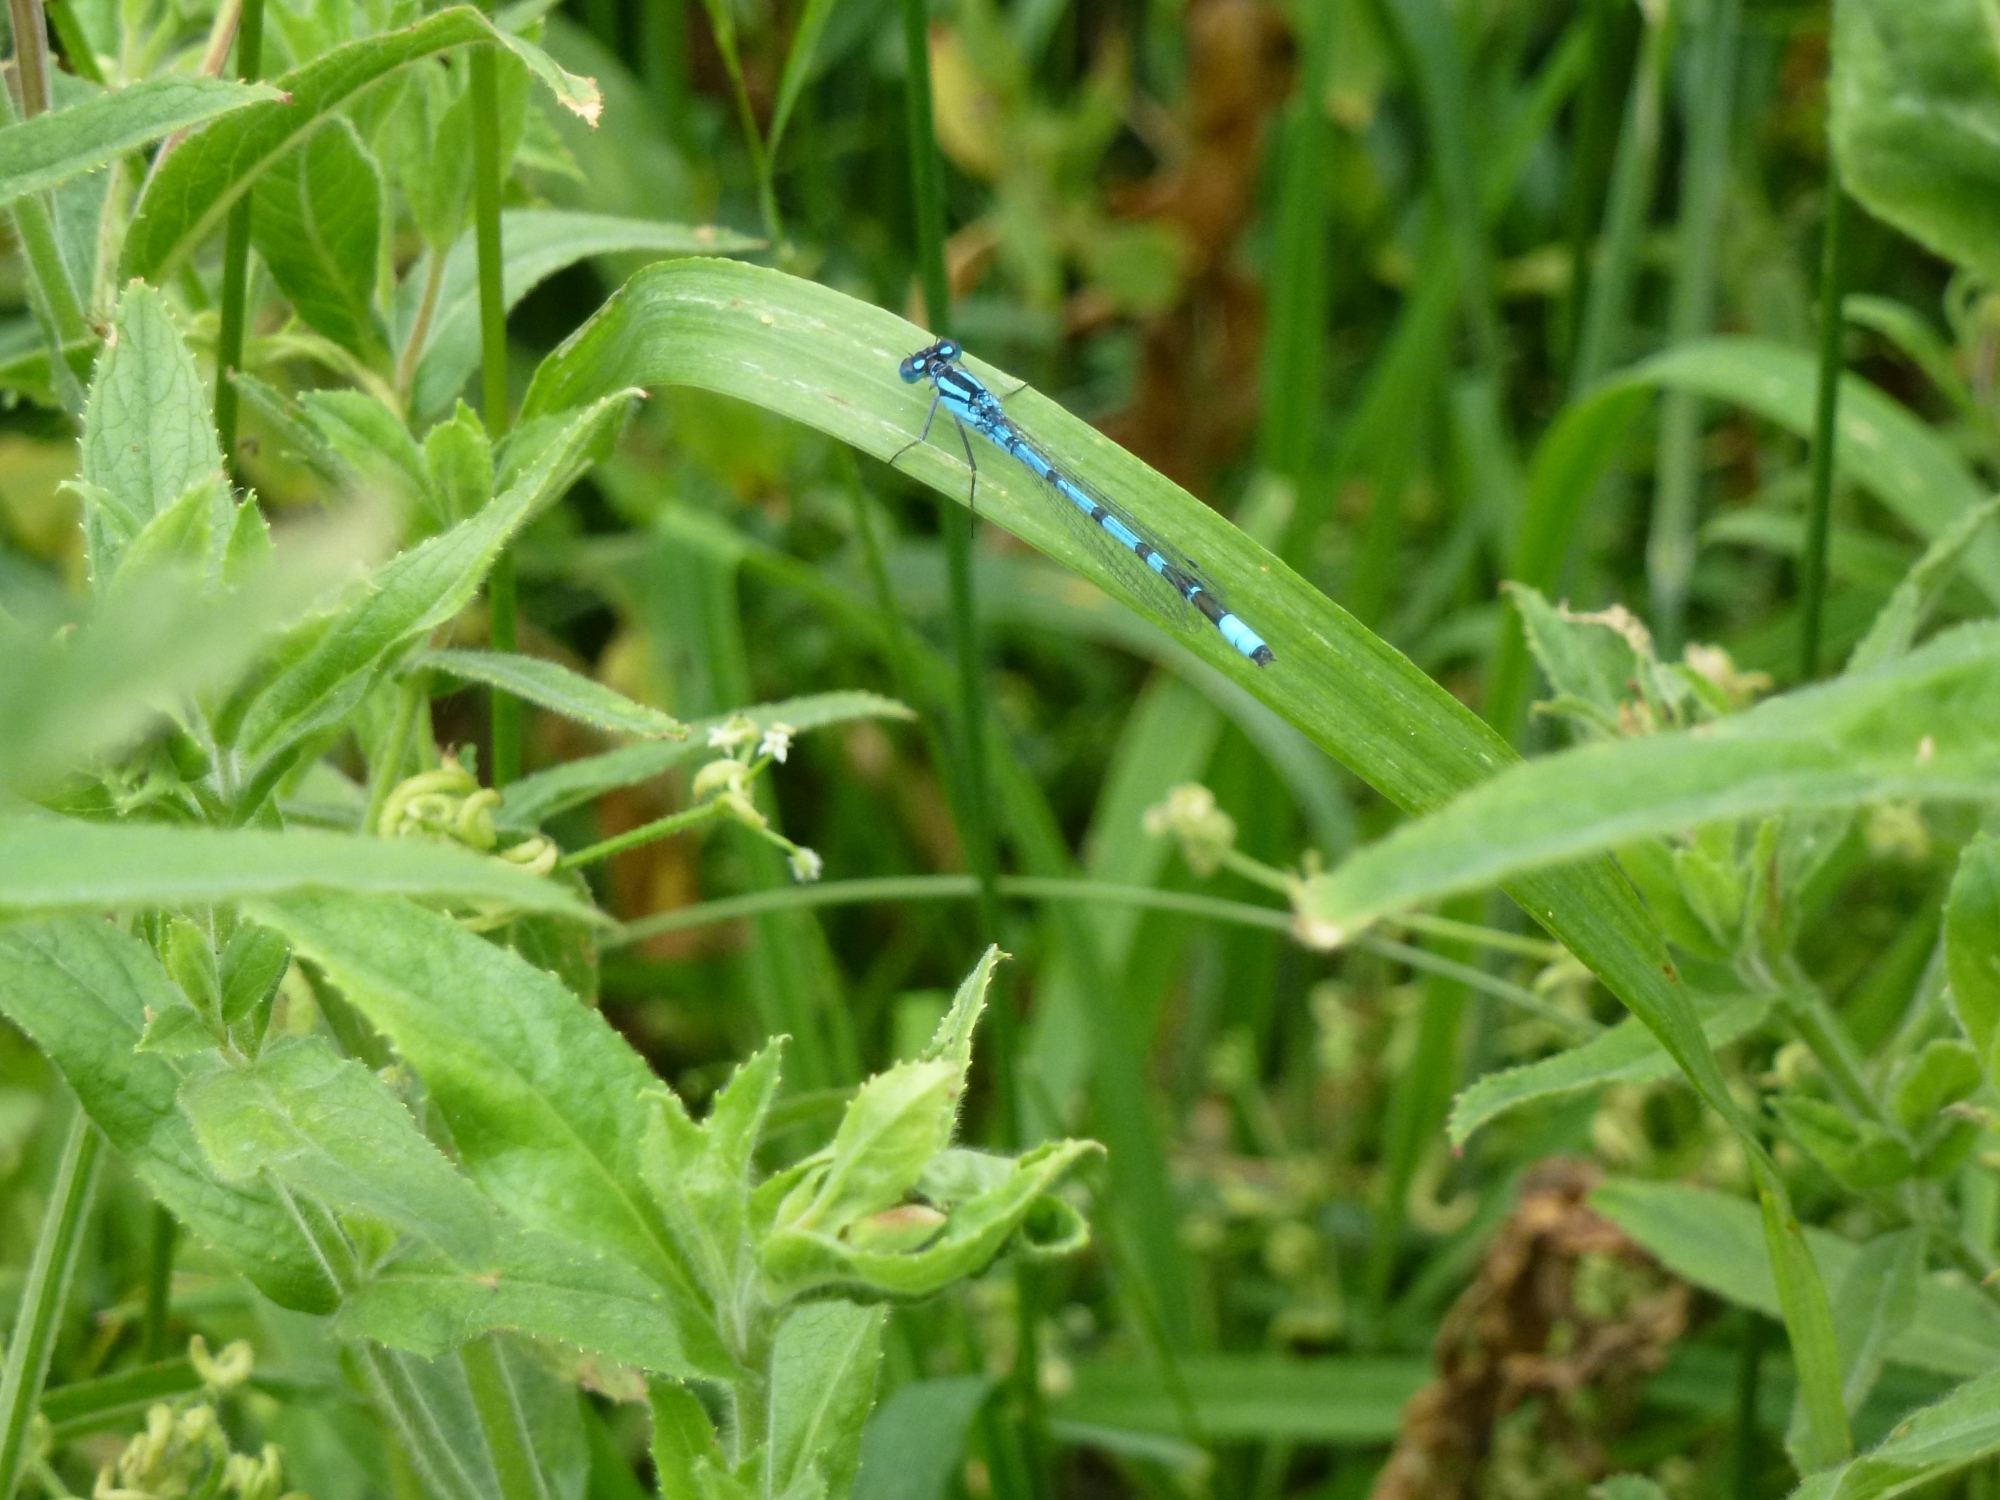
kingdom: Animalia
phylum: Arthropoda
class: Insecta
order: Odonata
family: Coenagrionidae
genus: Enallagma
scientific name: Enallagma cyathigerum
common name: Common blue damselfly
